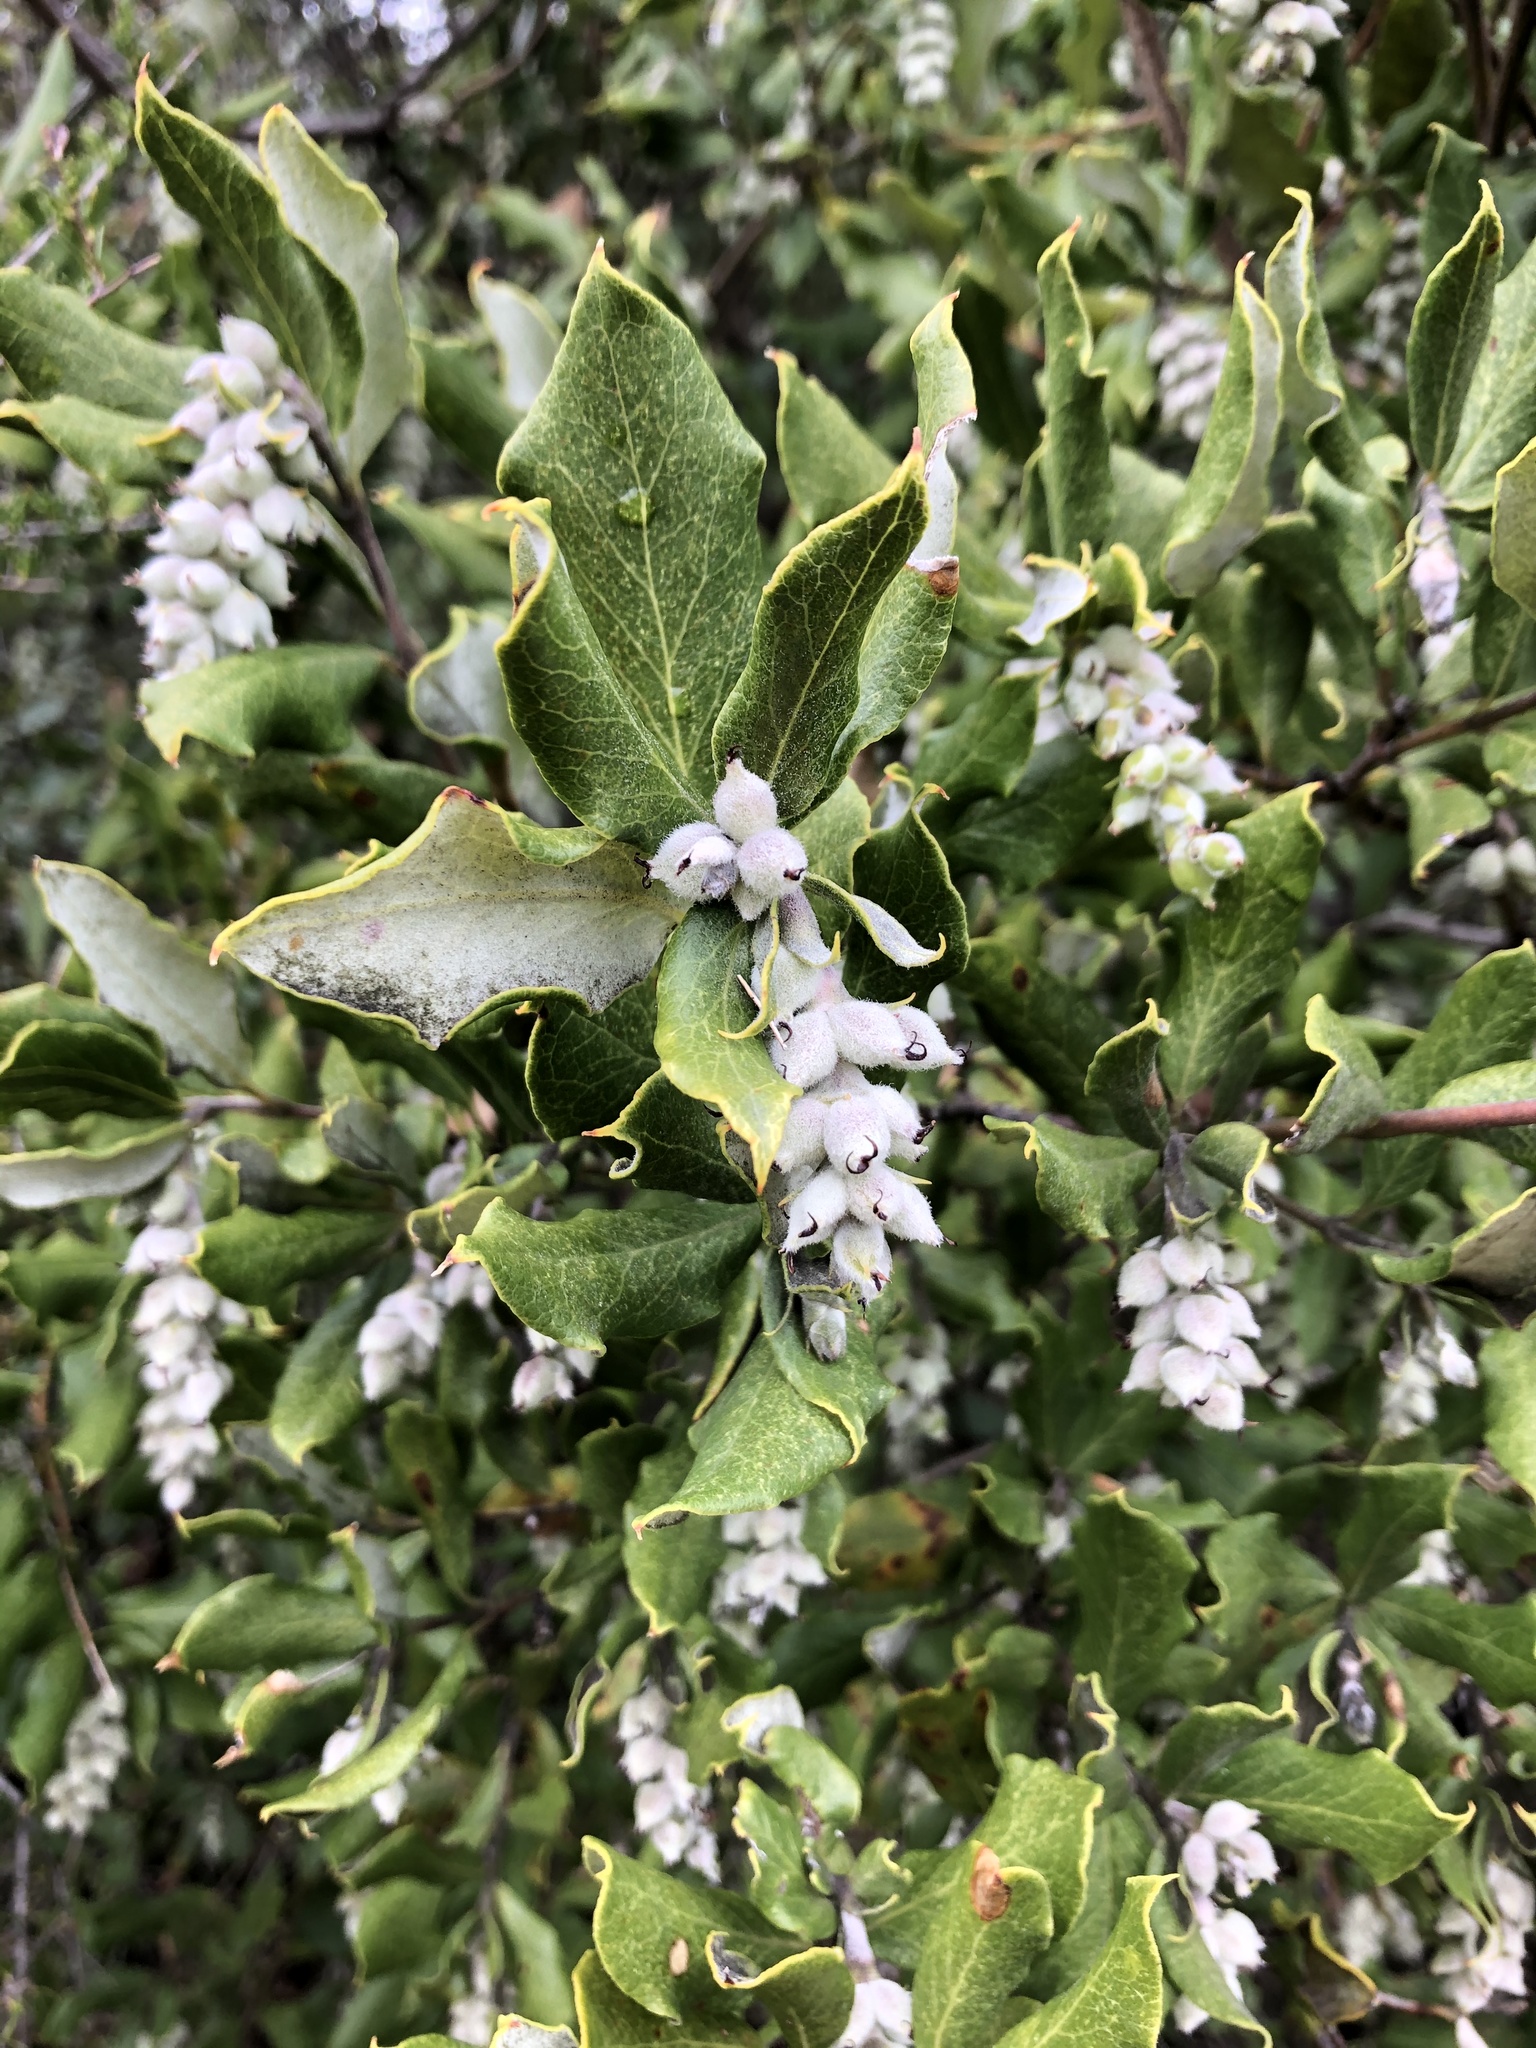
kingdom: Plantae
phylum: Tracheophyta
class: Magnoliopsida
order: Garryales
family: Garryaceae
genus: Garrya
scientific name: Garrya veatchii
